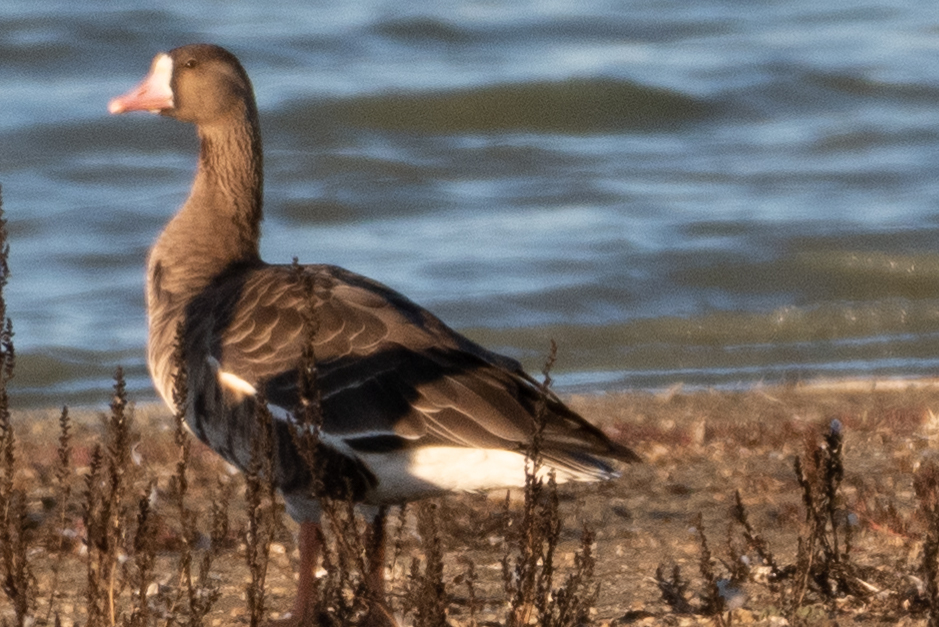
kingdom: Animalia
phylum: Chordata
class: Aves
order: Anseriformes
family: Anatidae
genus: Anser
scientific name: Anser albifrons
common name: Greater white-fronted goose
